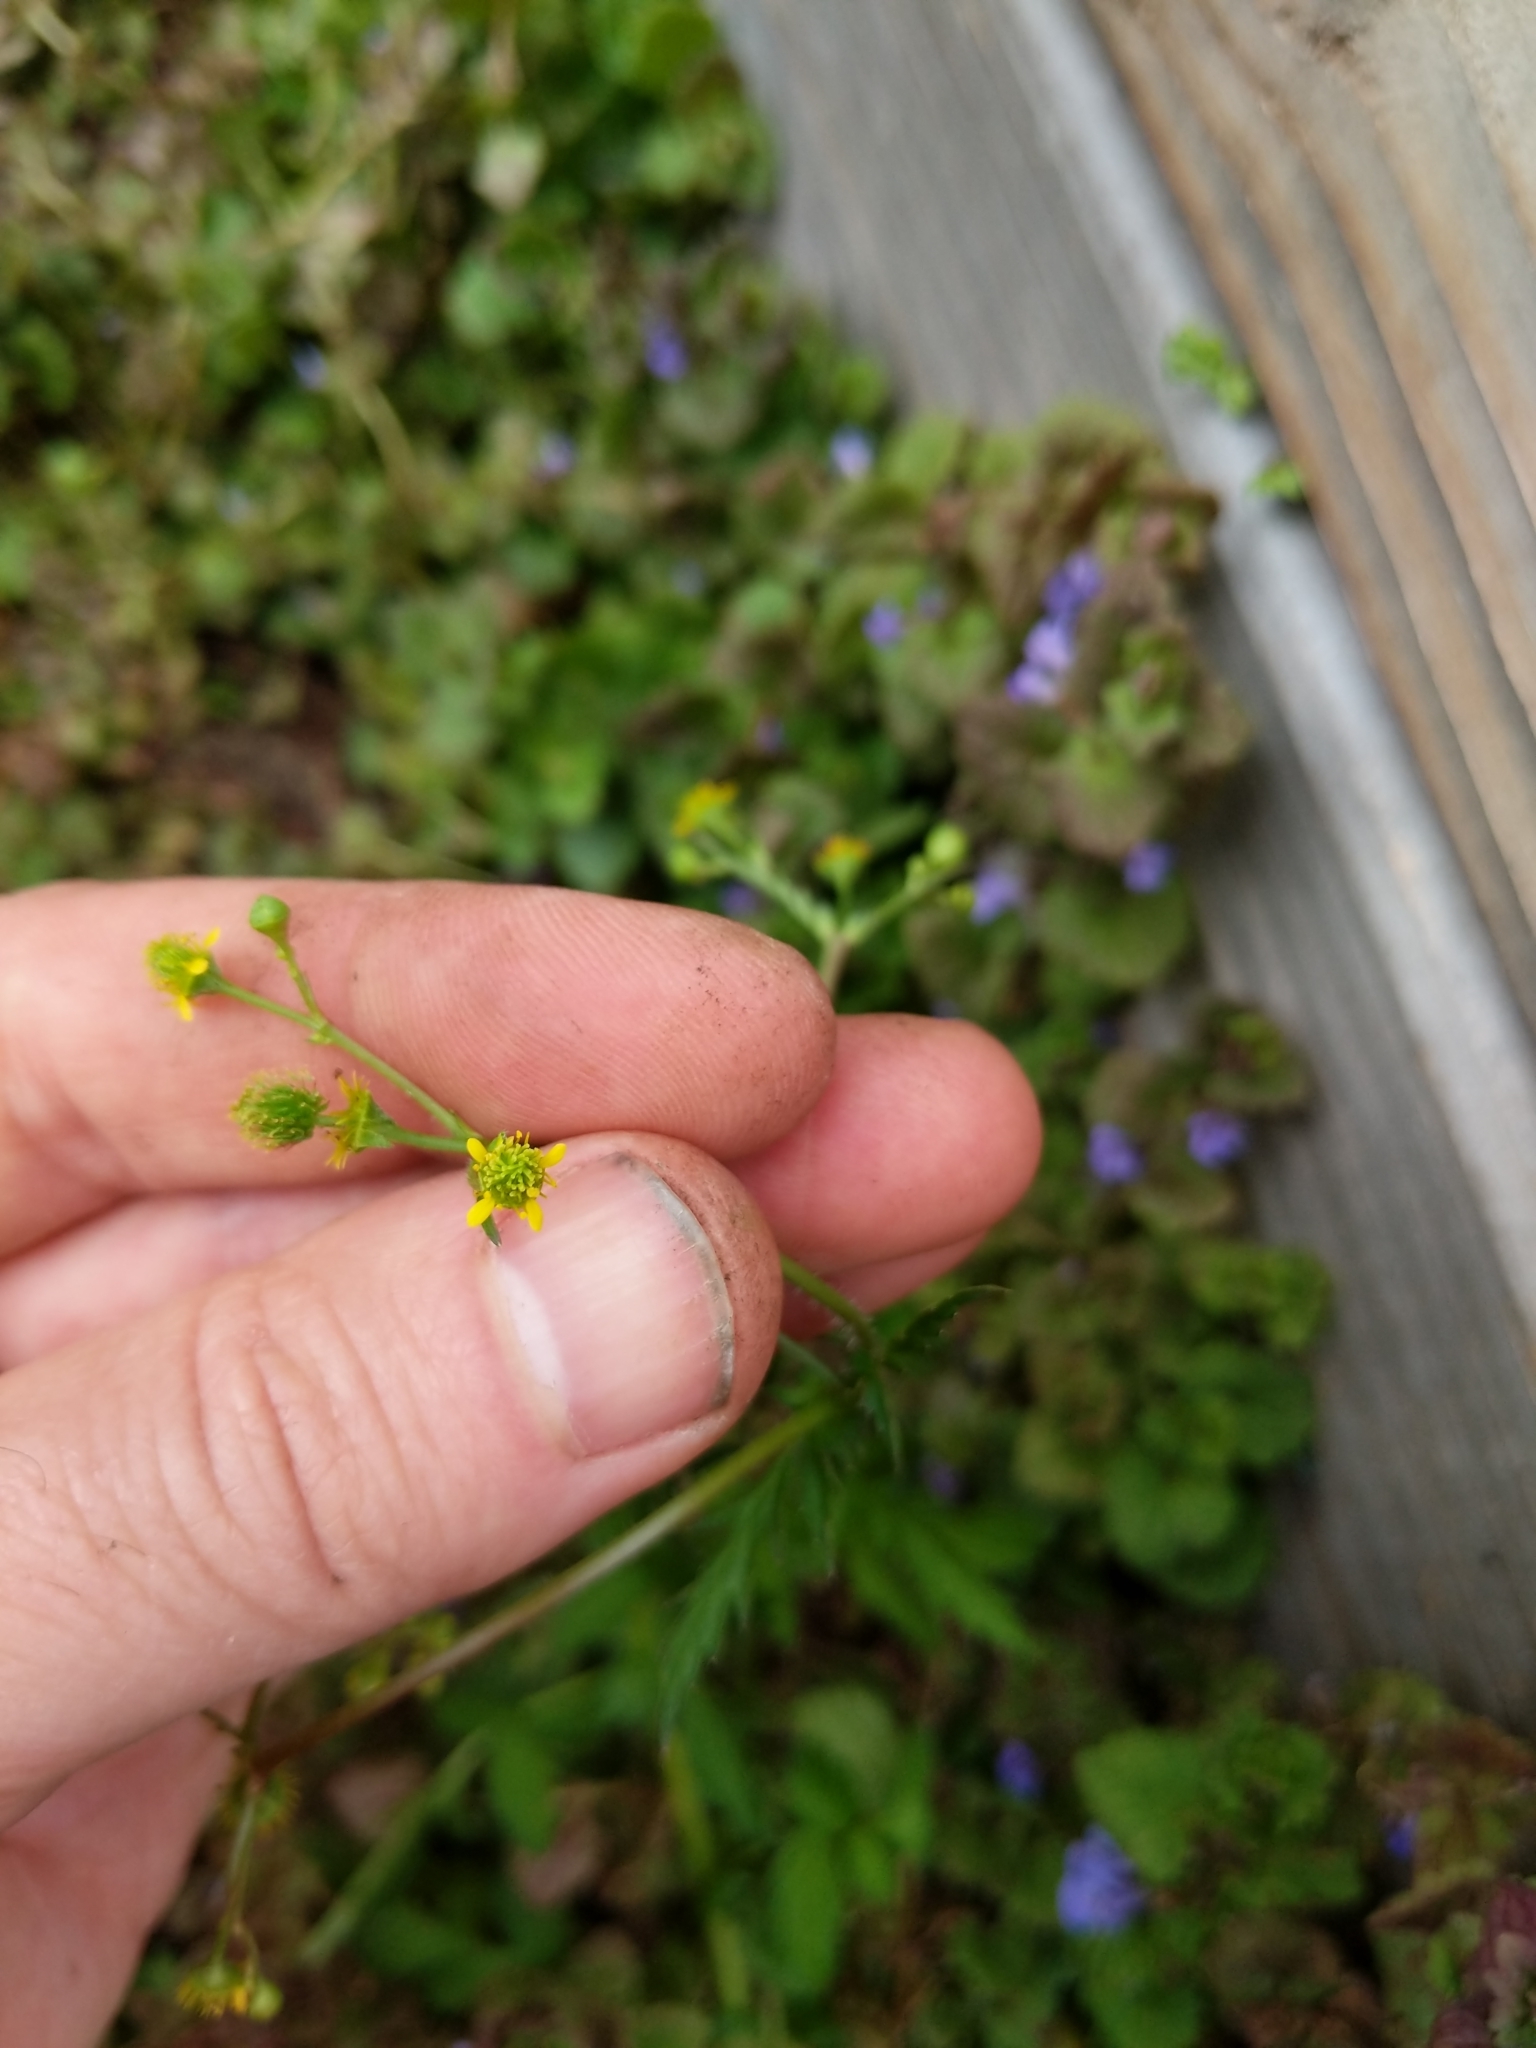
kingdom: Plantae
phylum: Tracheophyta
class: Magnoliopsida
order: Rosales
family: Rosaceae
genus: Geum
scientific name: Geum vernum
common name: Spring avens
